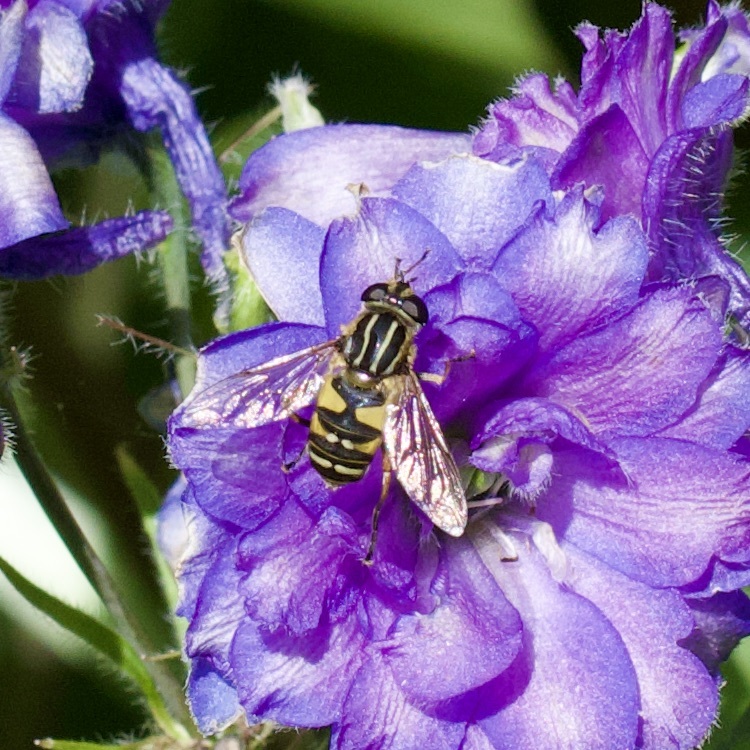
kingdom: Animalia
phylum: Arthropoda
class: Insecta
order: Diptera
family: Syrphidae
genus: Helophilus
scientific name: Helophilus pendulus
